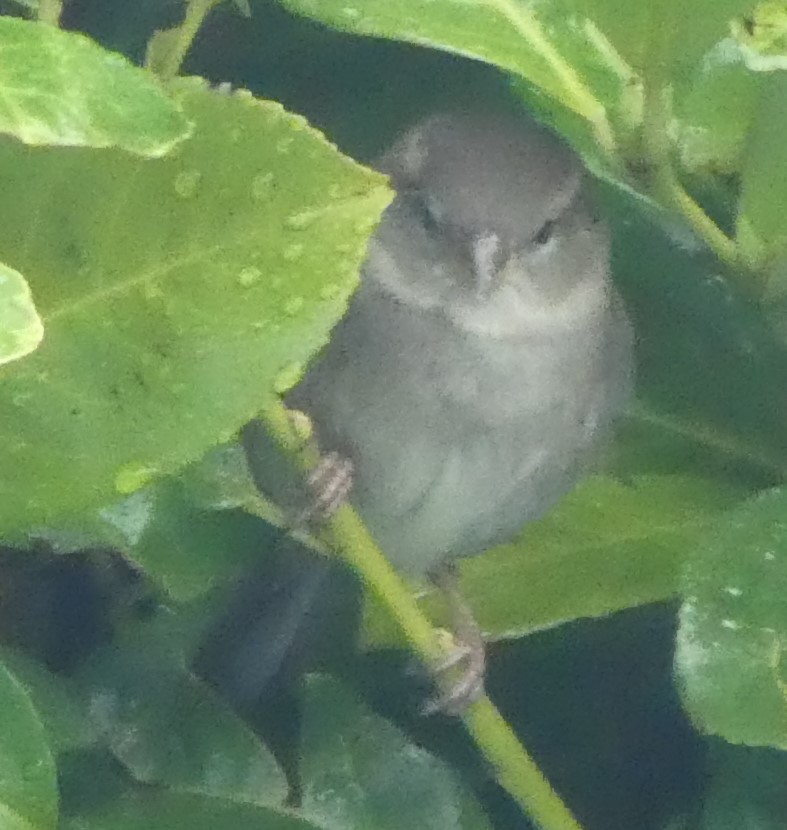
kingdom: Animalia
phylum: Chordata
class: Aves
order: Passeriformes
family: Passeridae
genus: Passer
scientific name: Passer domesticus
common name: House sparrow
